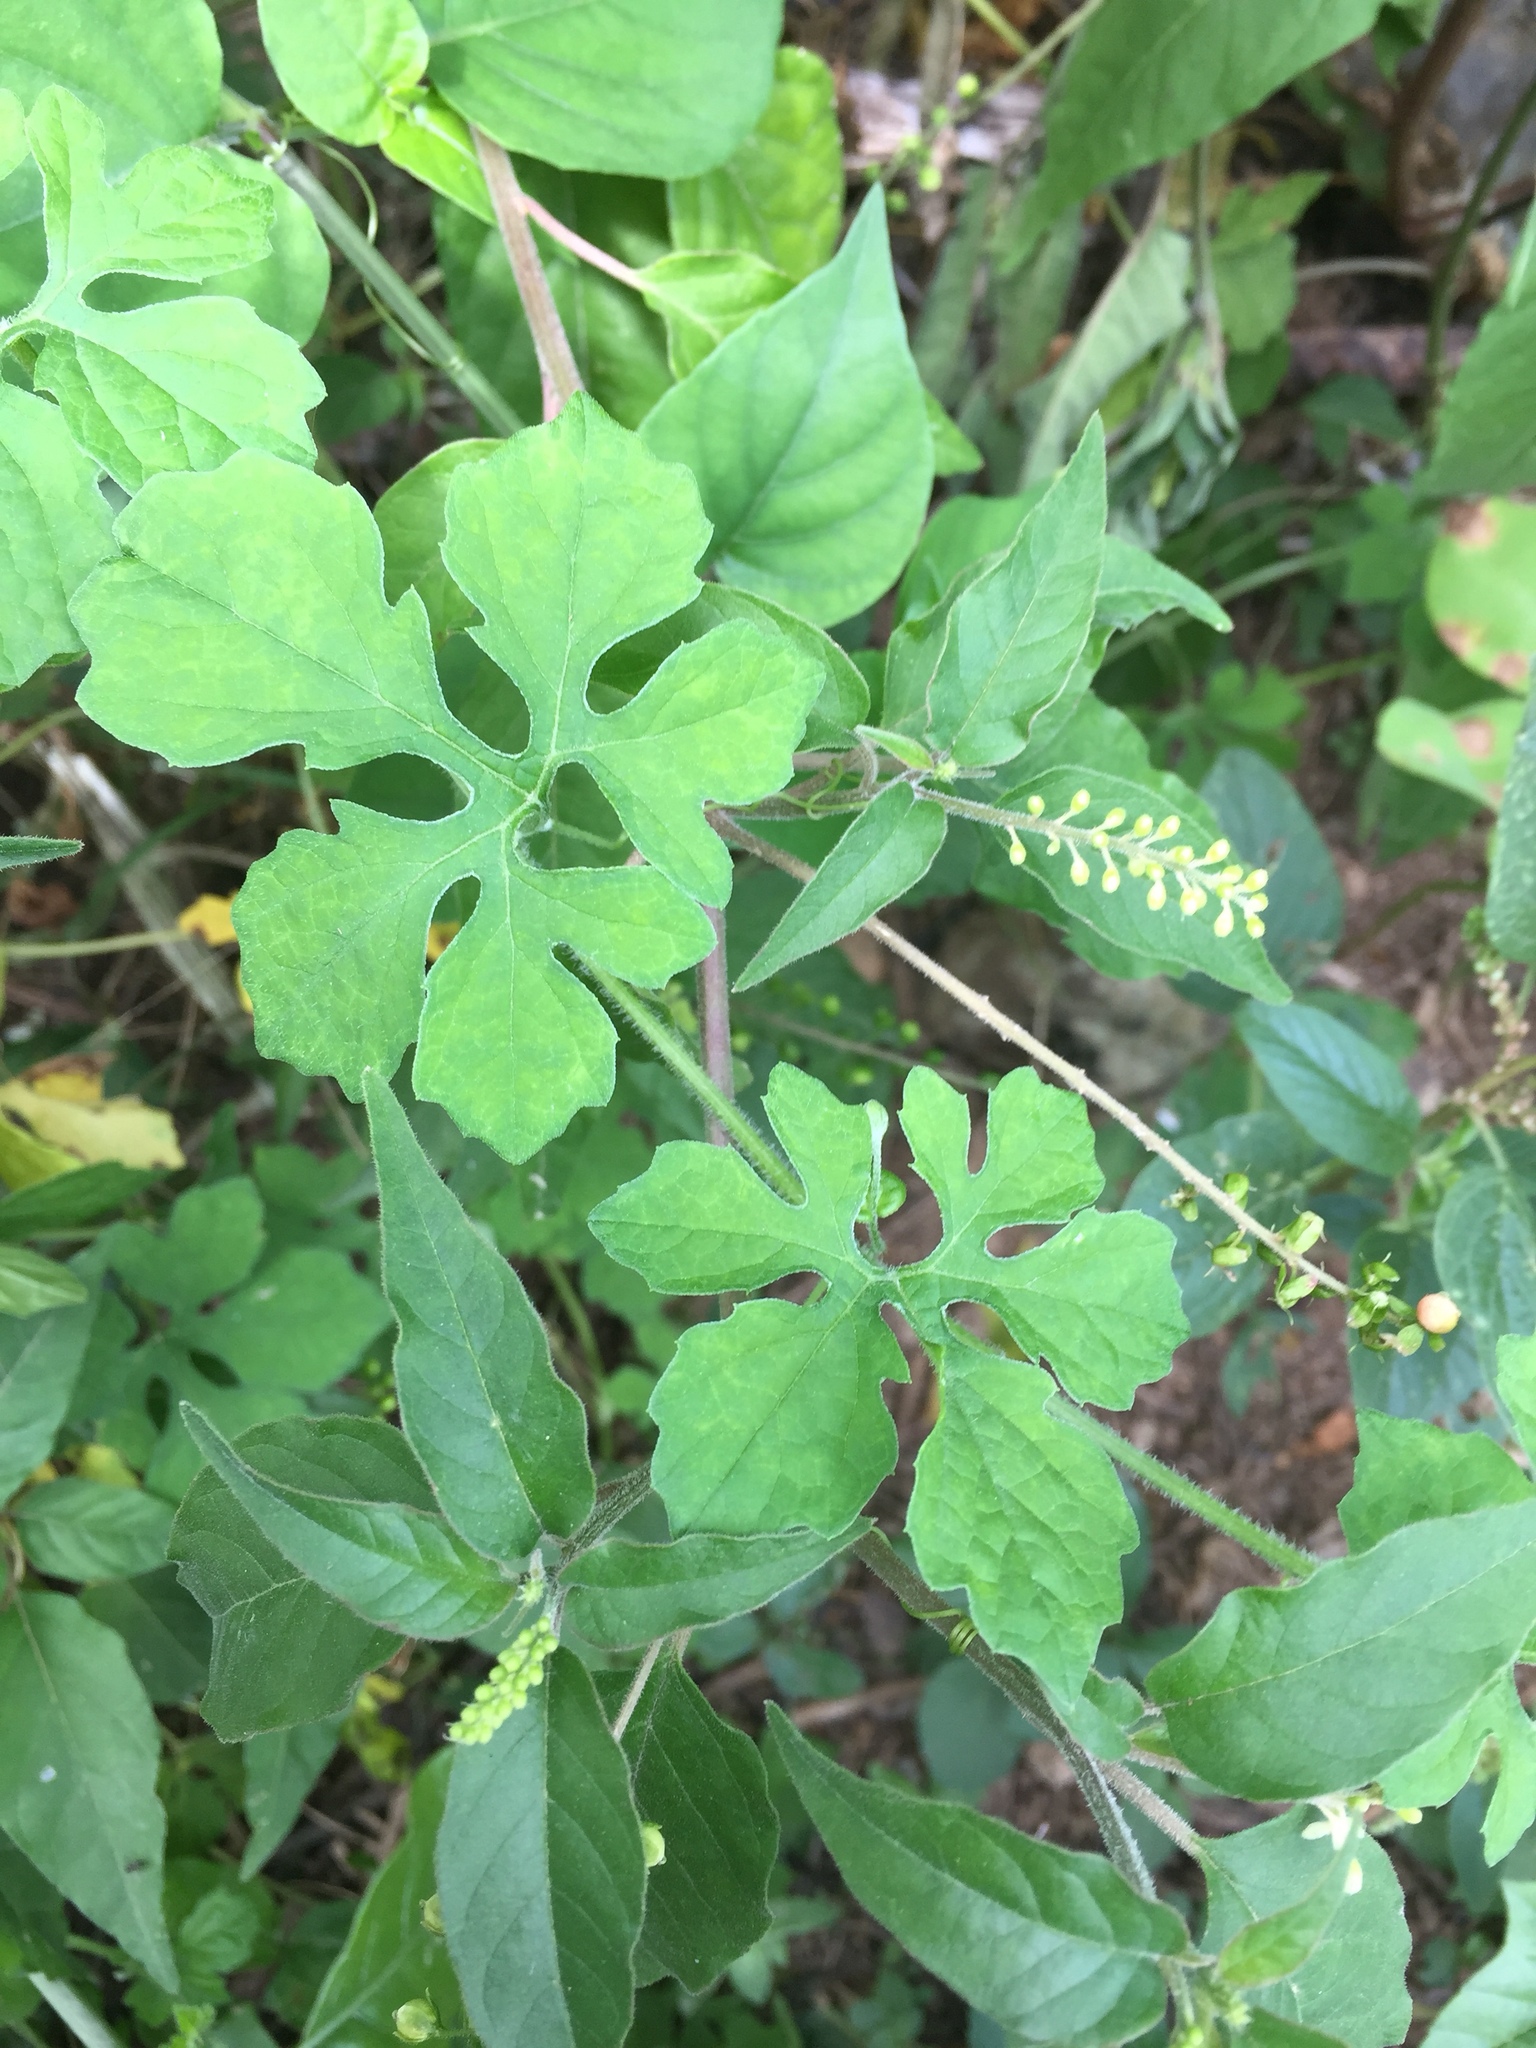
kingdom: Plantae
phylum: Tracheophyta
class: Magnoliopsida
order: Cucurbitales
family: Cucurbitaceae
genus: Momordica
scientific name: Momordica charantia
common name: Balsampear
